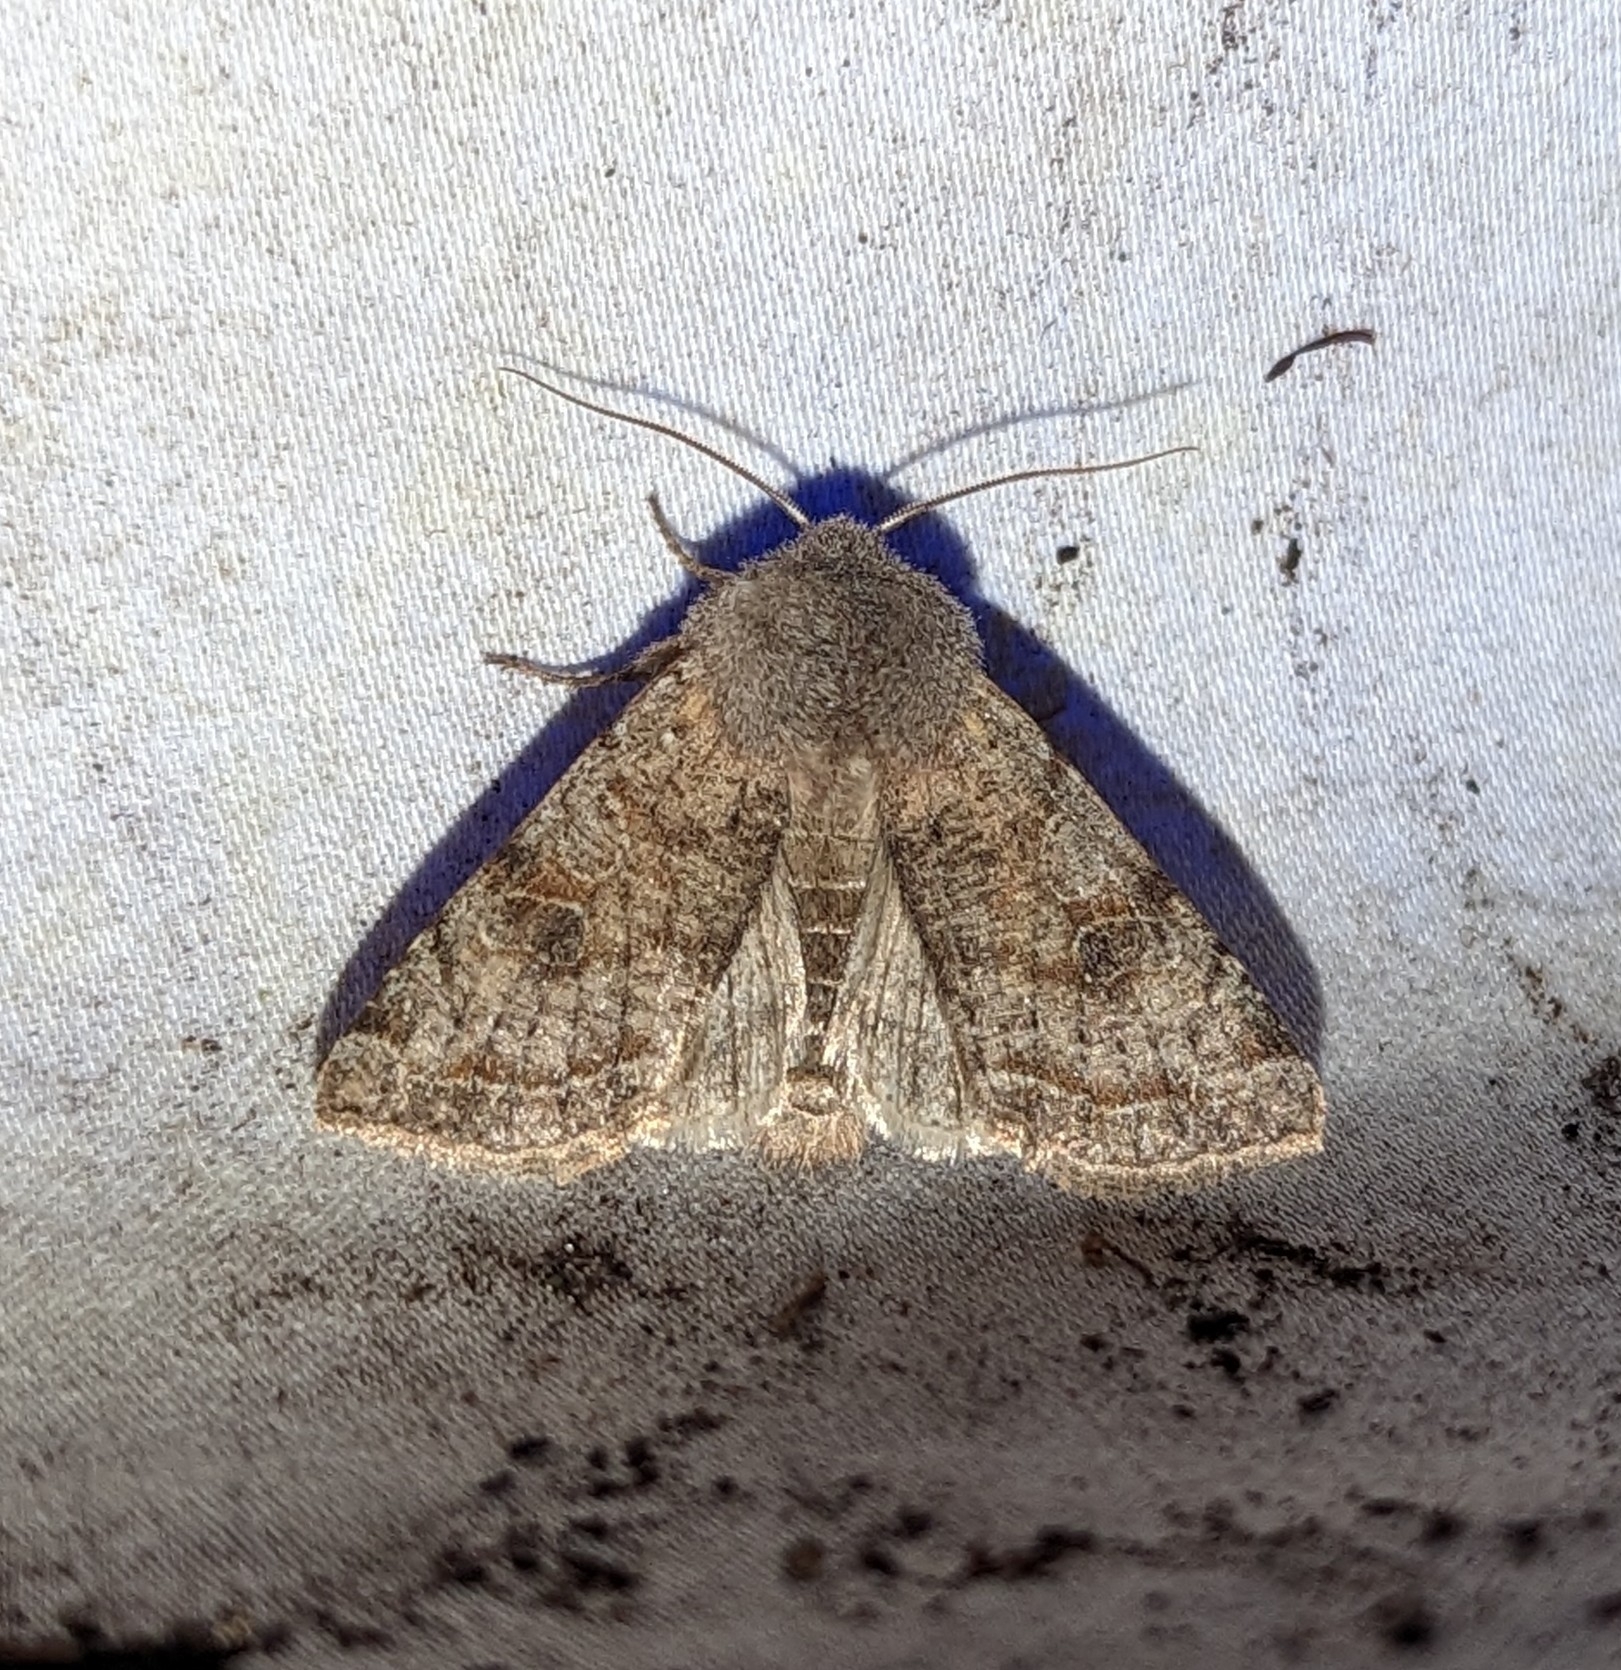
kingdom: Animalia
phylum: Arthropoda
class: Insecta
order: Lepidoptera
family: Noctuidae
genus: Orthosia
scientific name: Orthosia hibisci
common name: Green fruitworm
